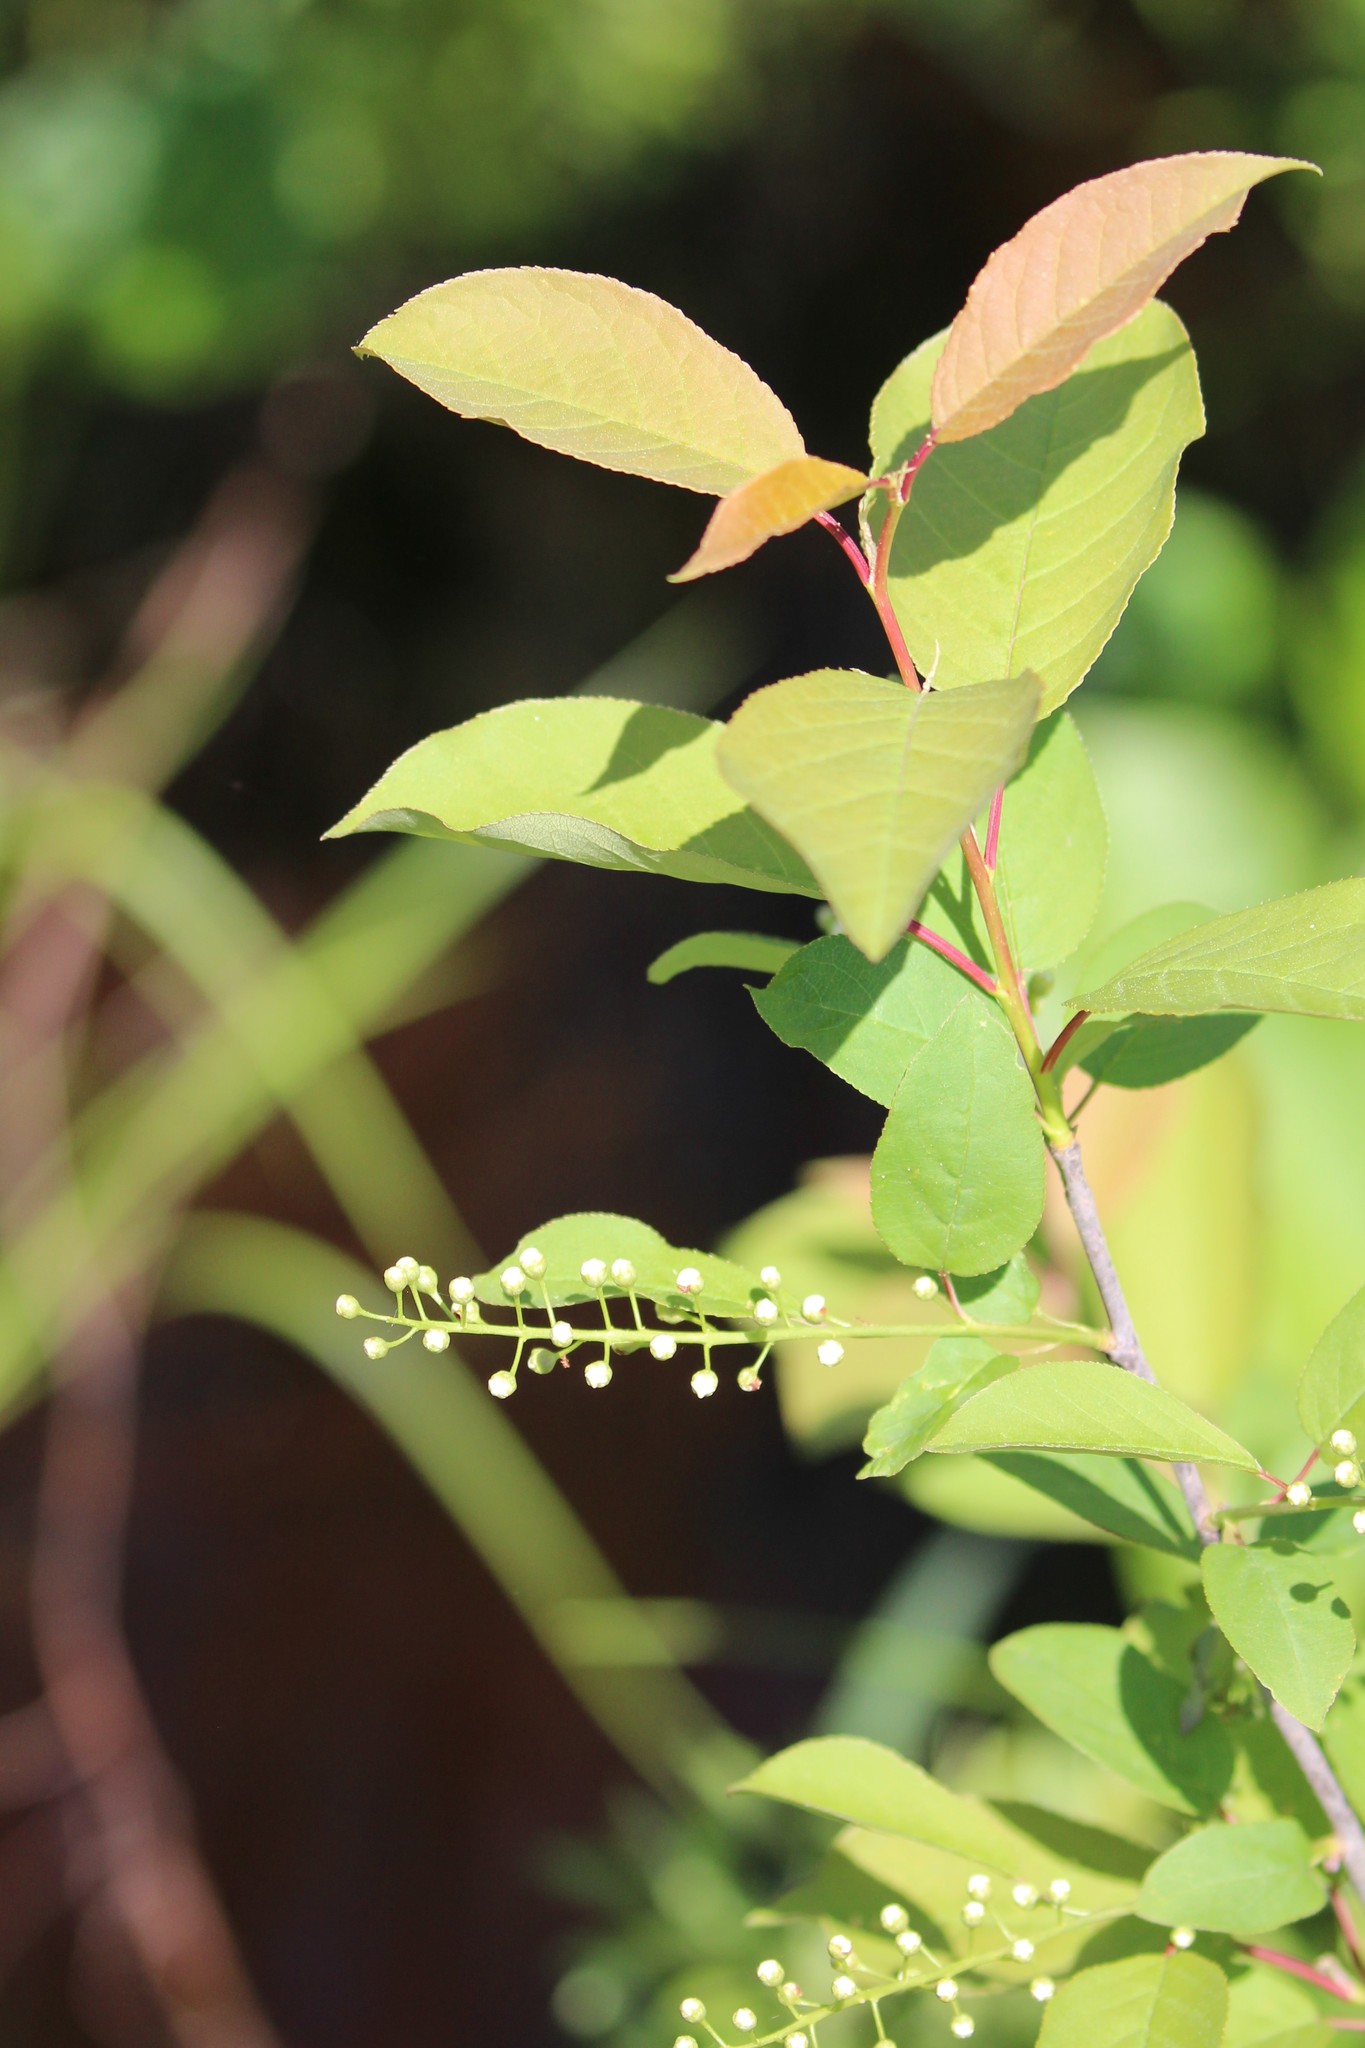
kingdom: Plantae
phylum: Tracheophyta
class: Magnoliopsida
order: Rosales
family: Rosaceae
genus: Prunus
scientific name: Prunus virginiana
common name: Chokecherry
